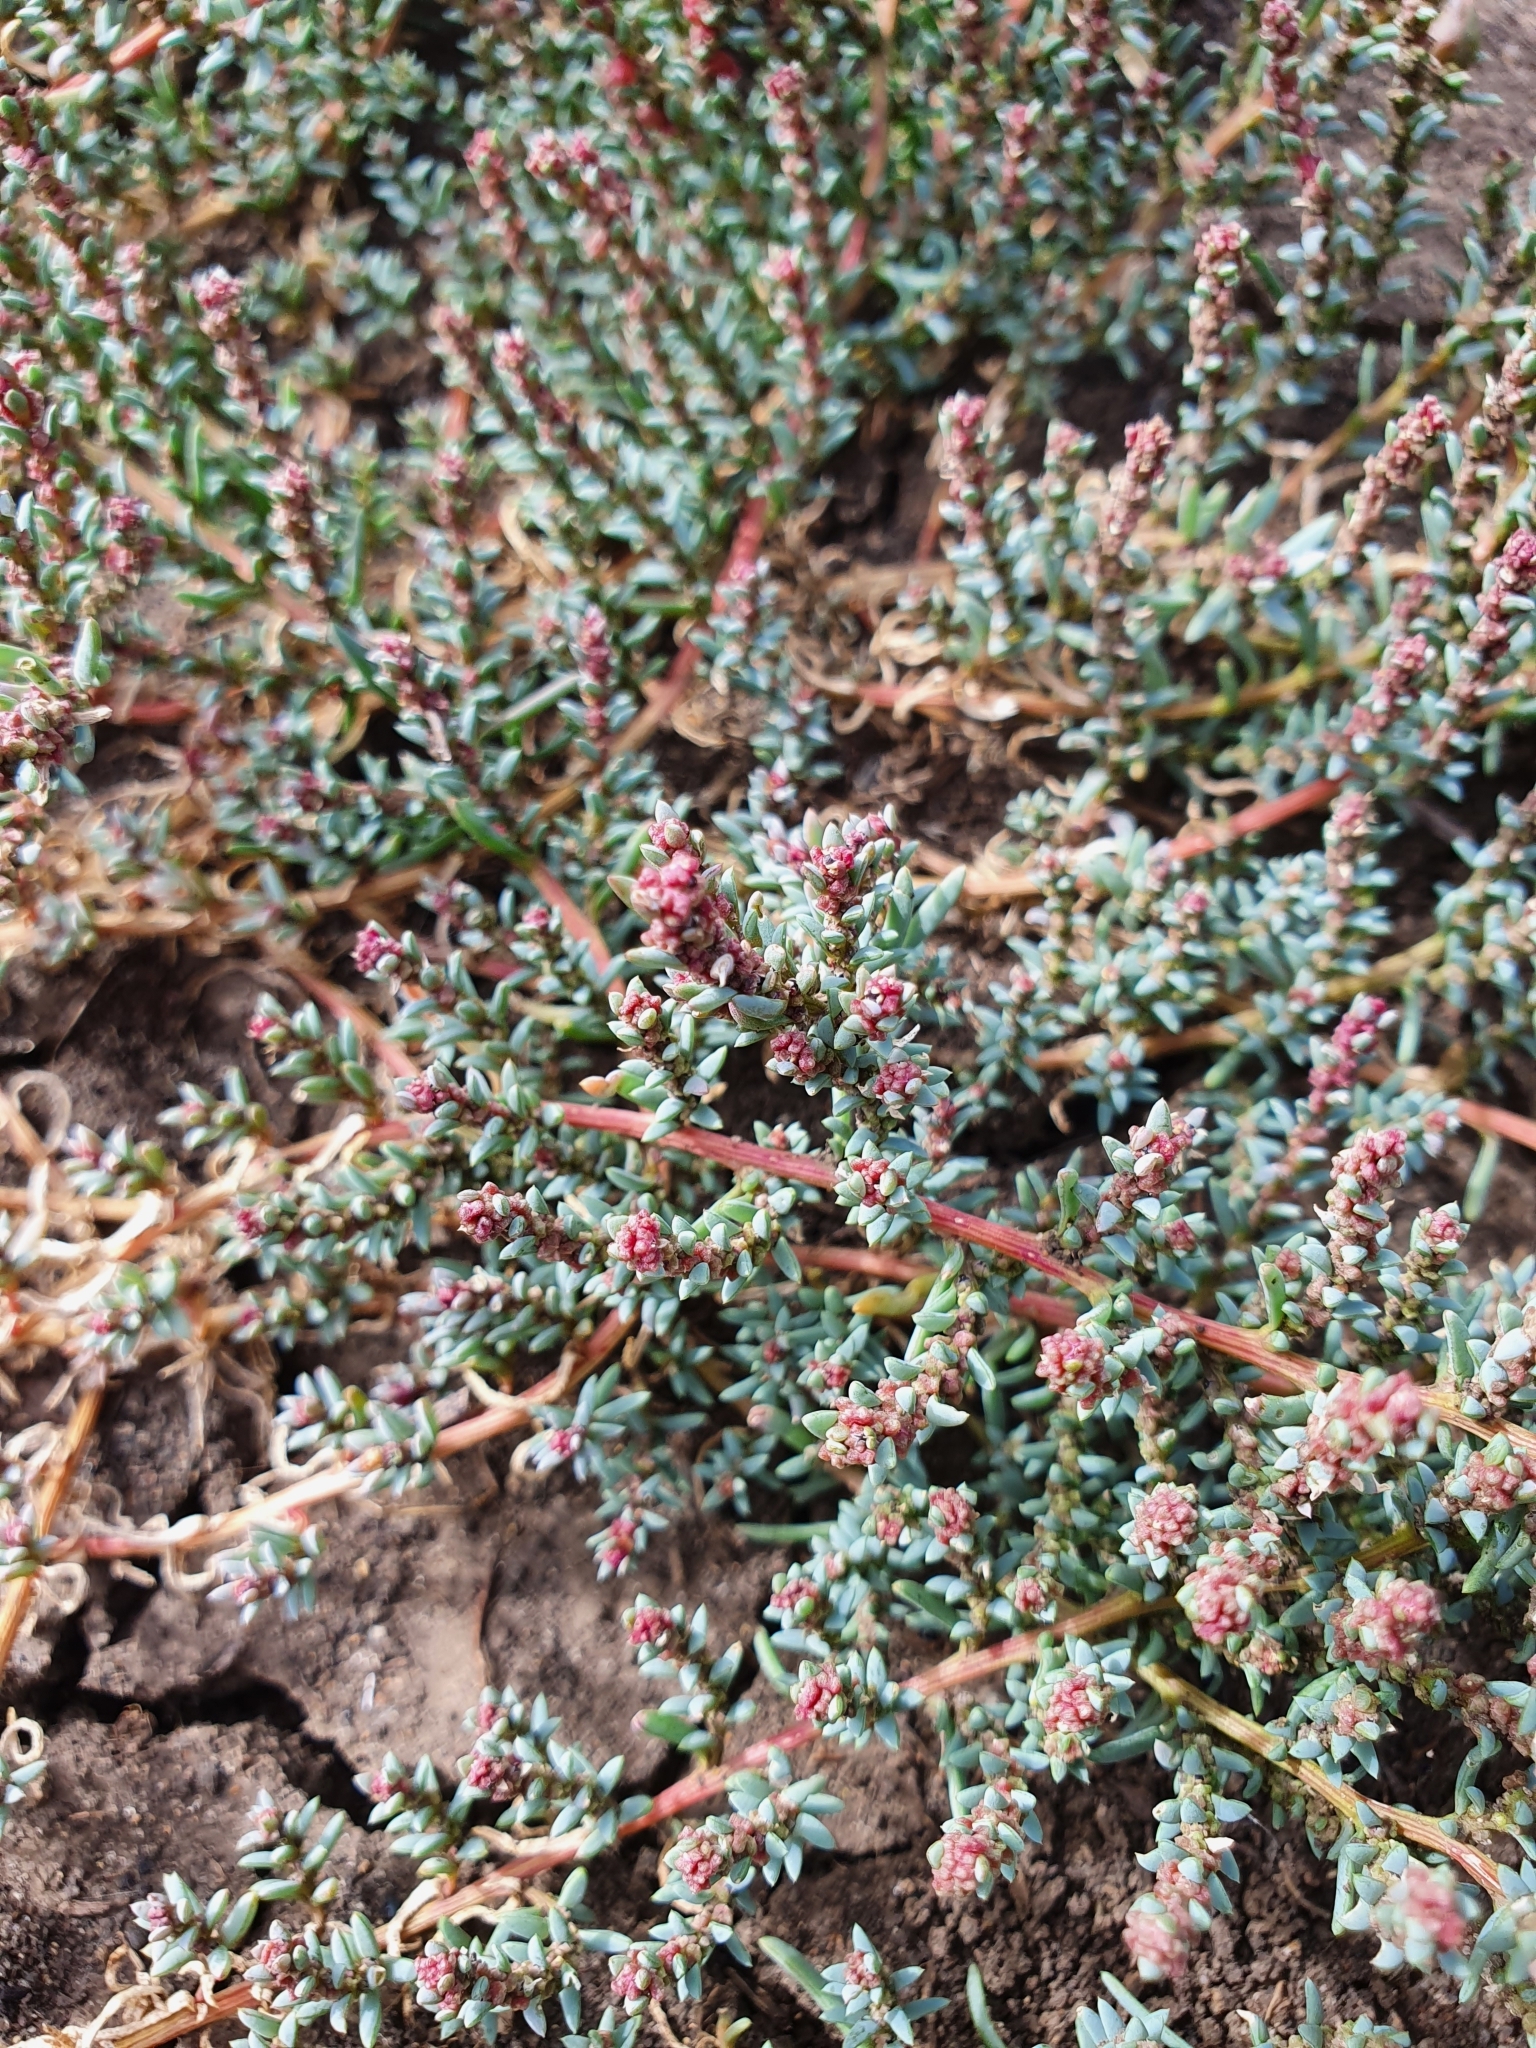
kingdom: Plantae
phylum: Tracheophyta
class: Magnoliopsida
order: Caryophyllales
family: Amaranthaceae
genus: Suaeda
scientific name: Suaeda corniculata
